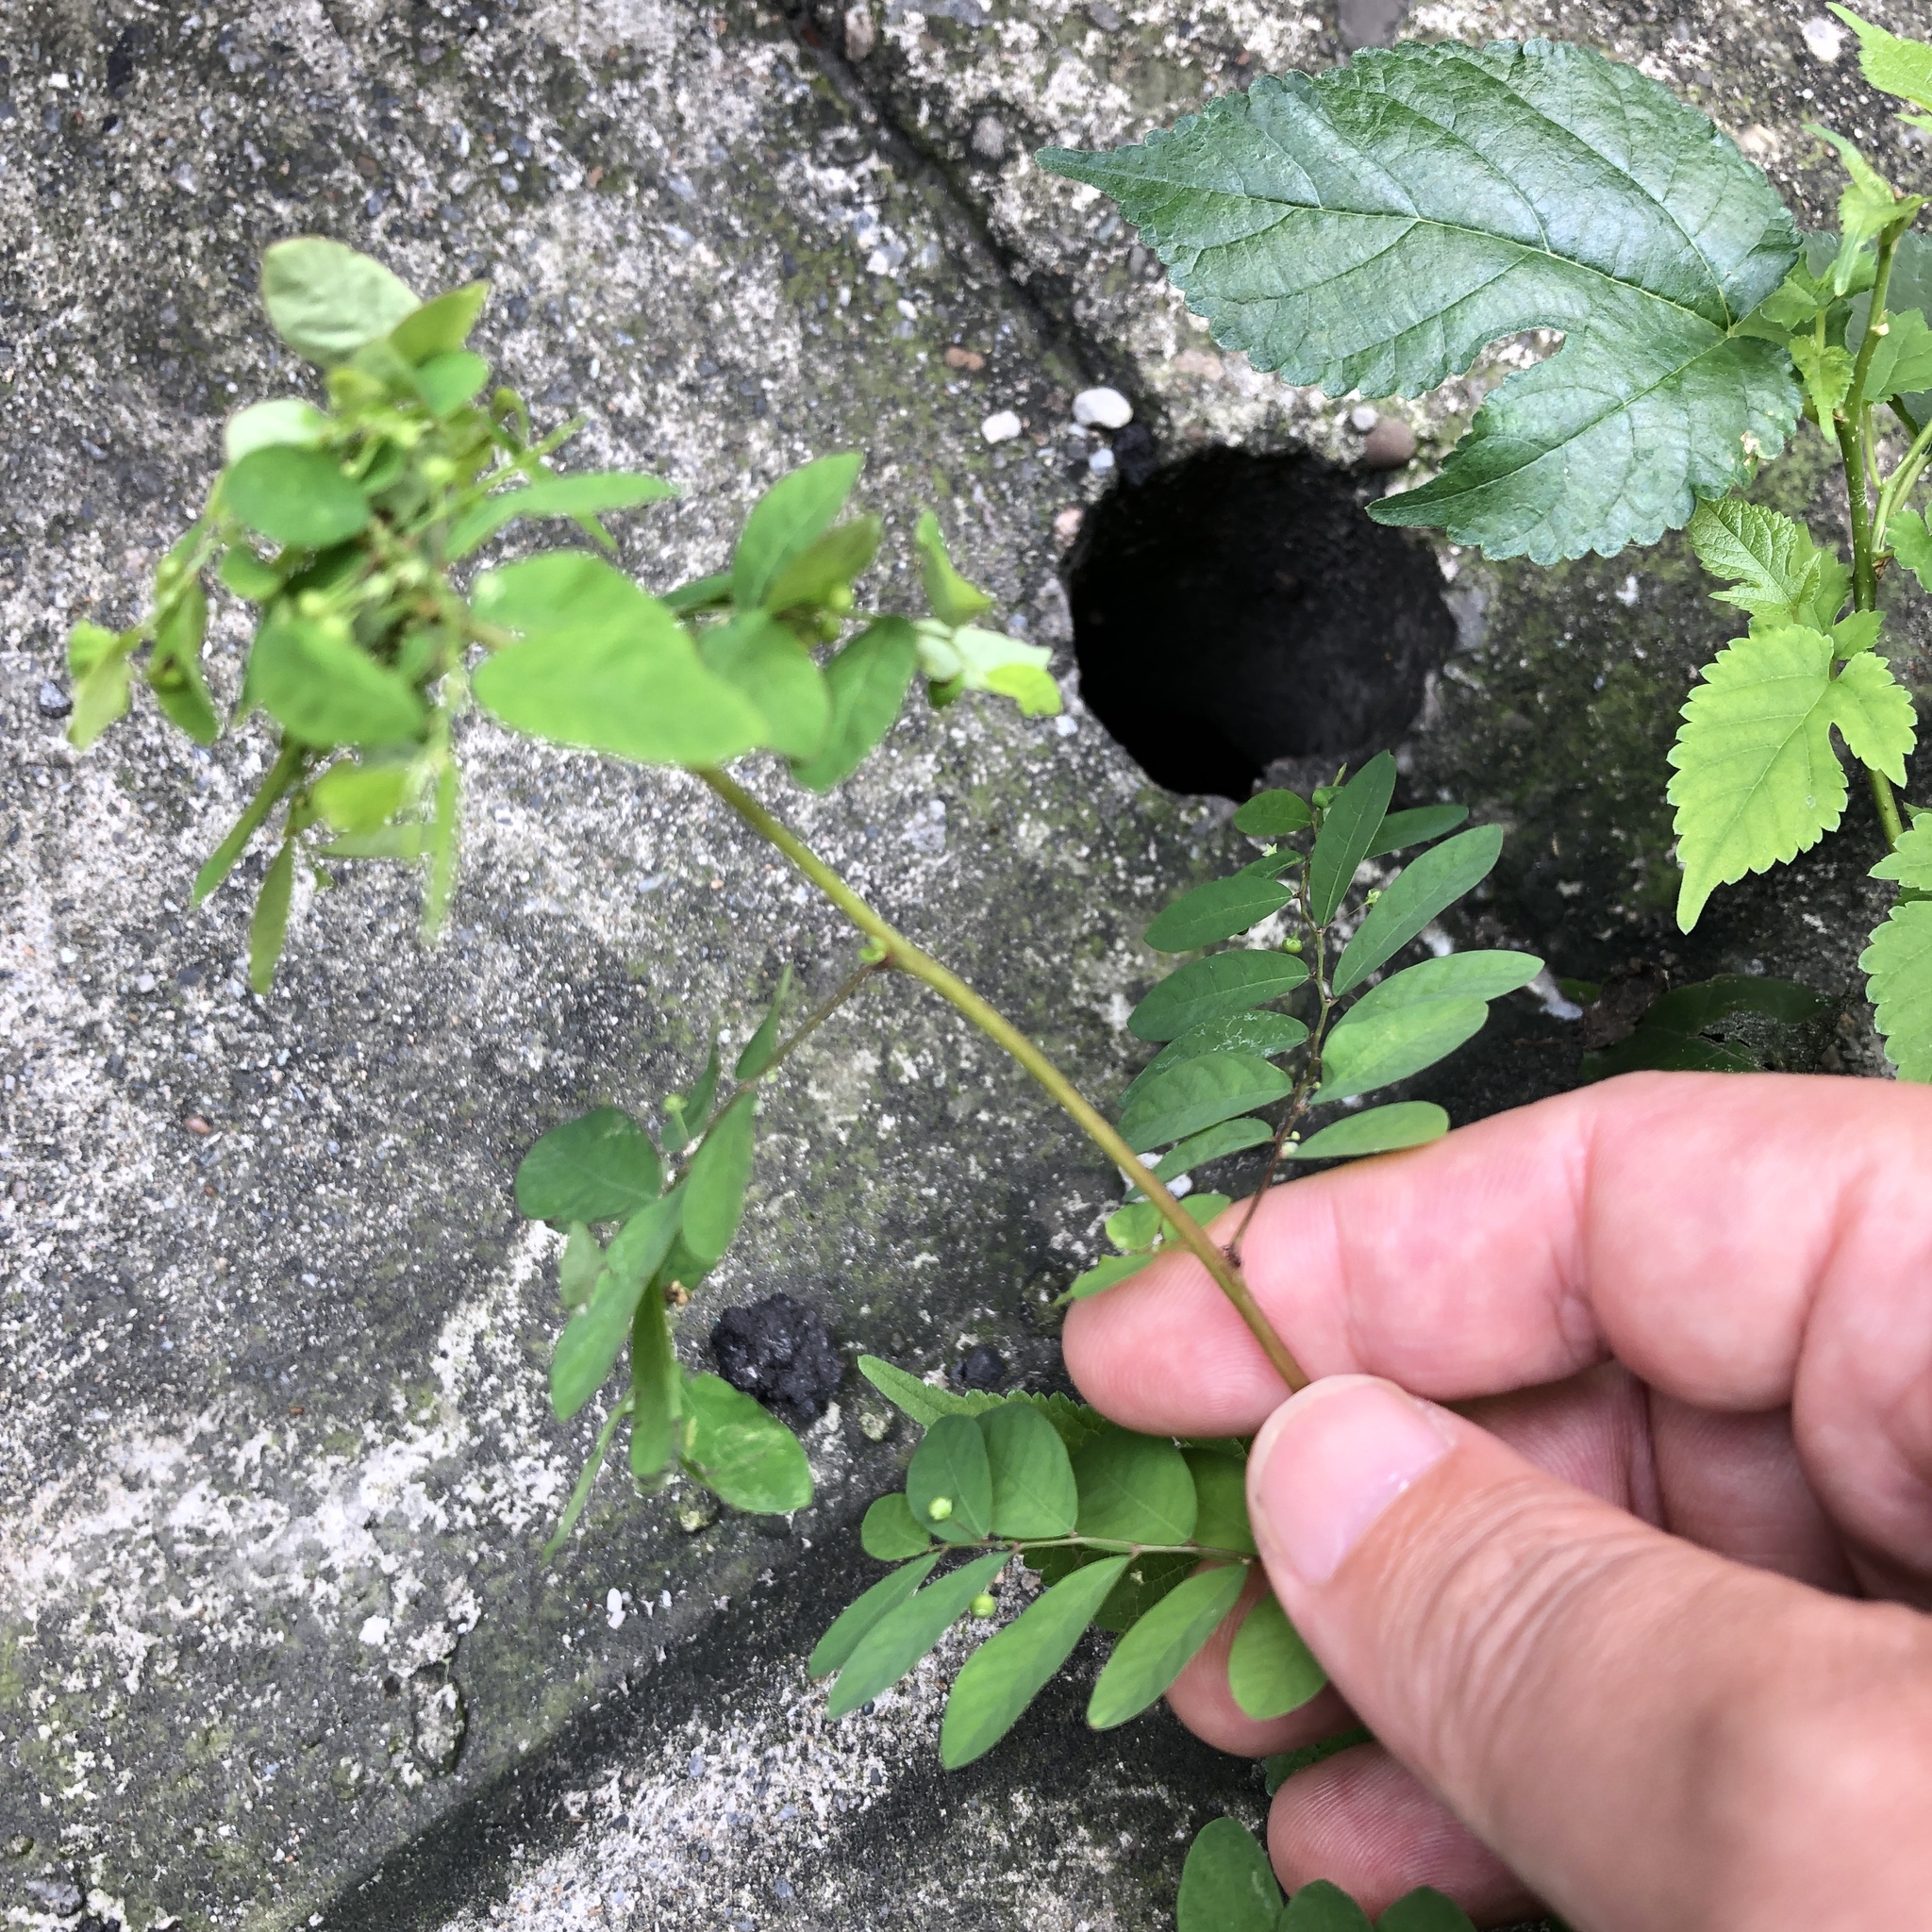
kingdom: Plantae
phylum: Tracheophyta
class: Magnoliopsida
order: Malpighiales
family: Phyllanthaceae
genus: Phyllanthus
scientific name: Phyllanthus tenellus
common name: Mascarene island leaf-flower
